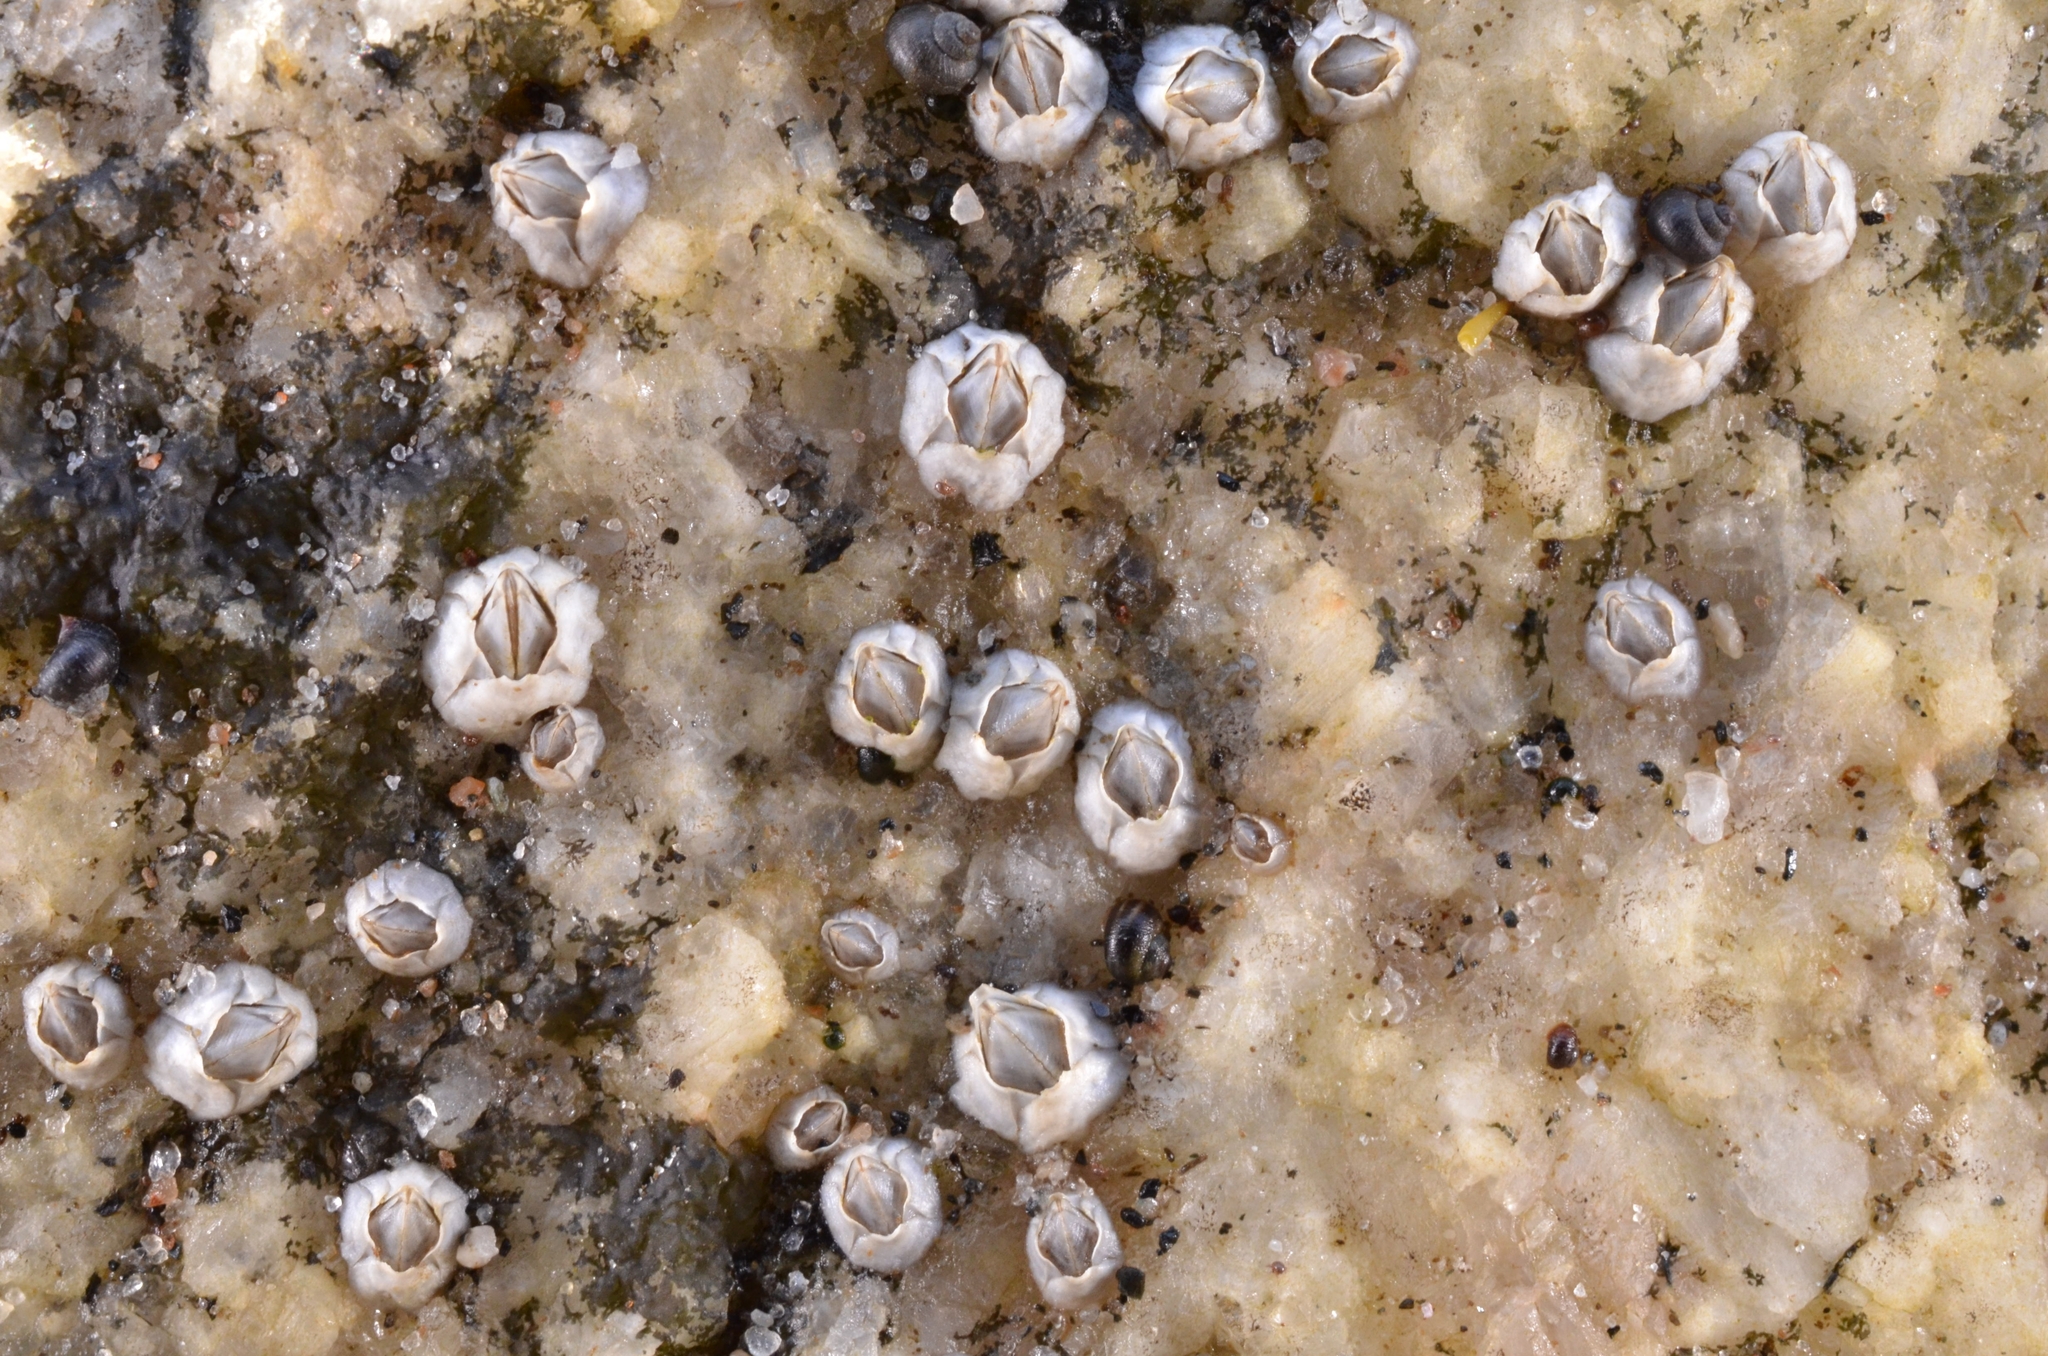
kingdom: Animalia
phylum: Arthropoda
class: Maxillopoda
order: Sessilia
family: Archaeobalanidae
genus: Semibalanus
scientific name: Semibalanus balanoides
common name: Acorn barnacle
